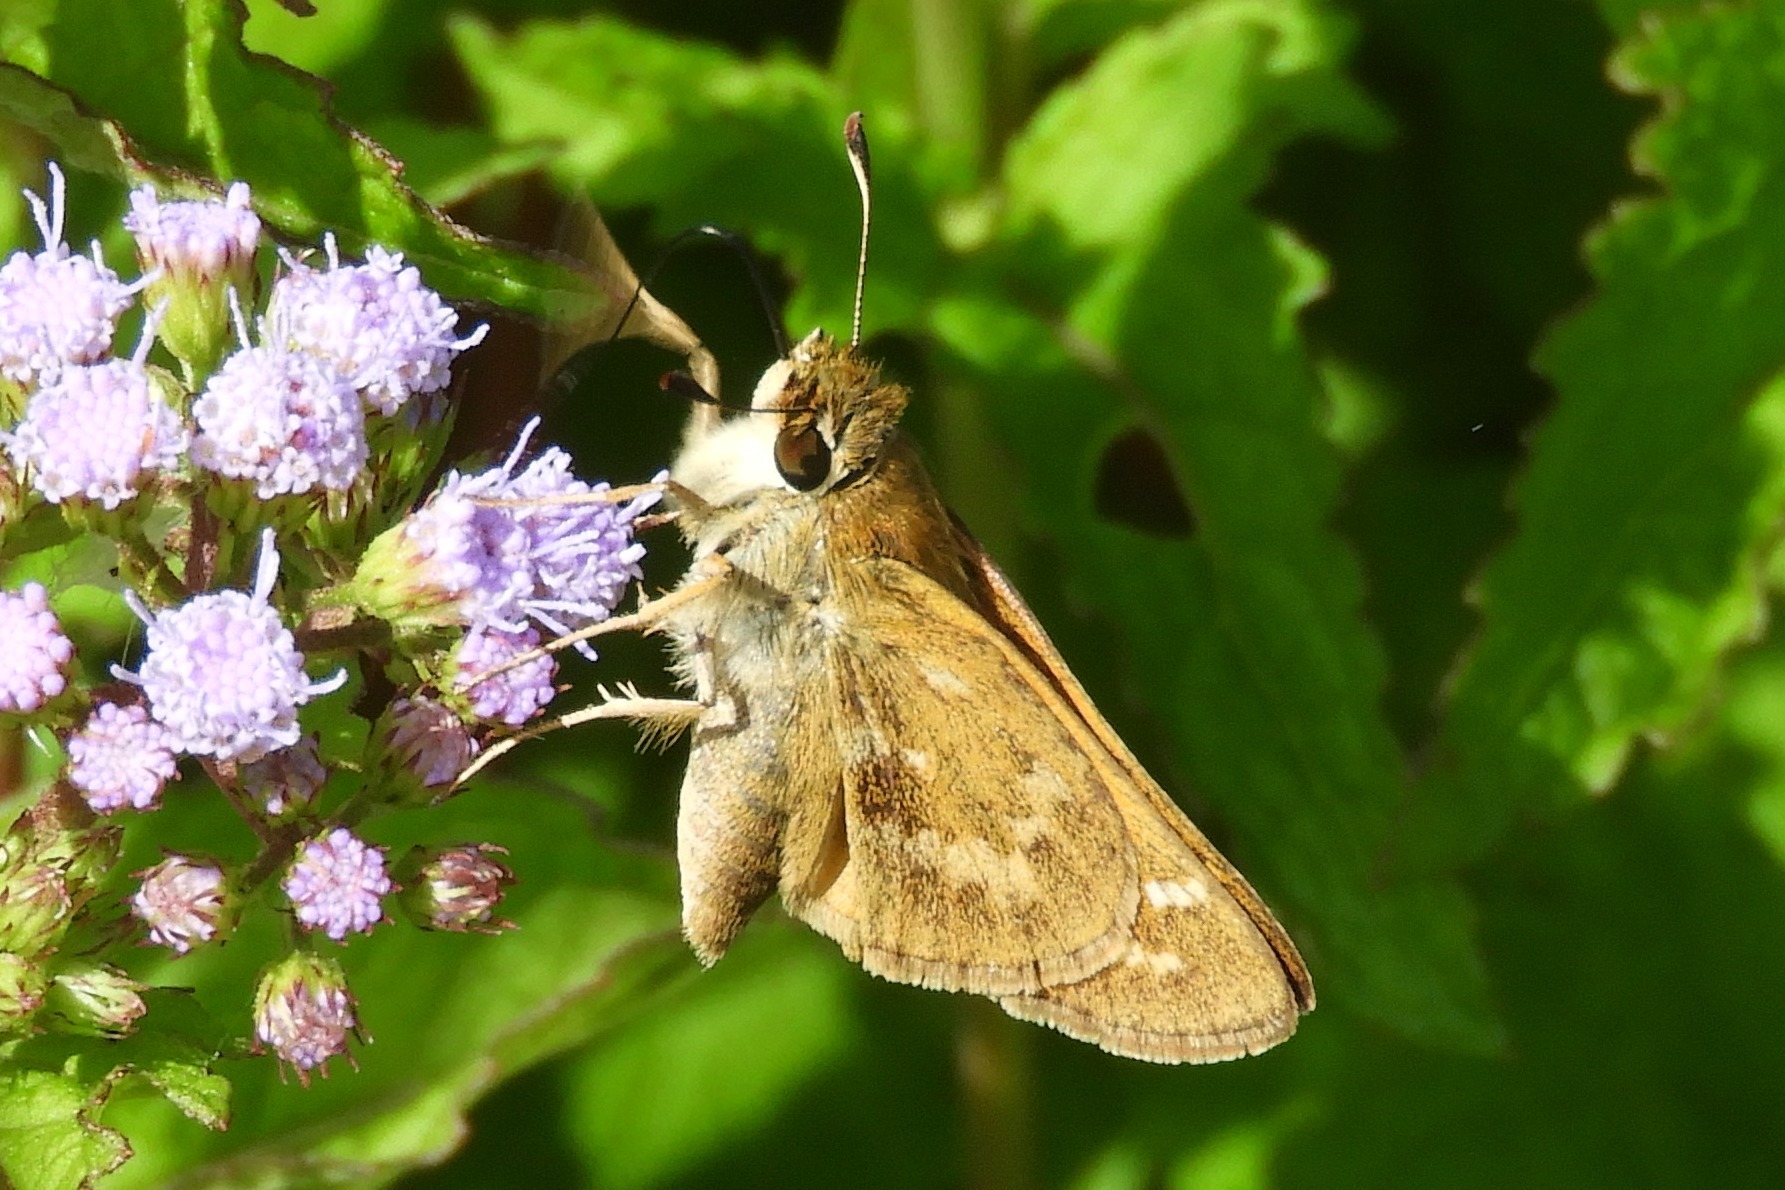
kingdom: Animalia
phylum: Arthropoda
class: Insecta
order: Lepidoptera
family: Hesperiidae
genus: Atalopedes
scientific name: Atalopedes
